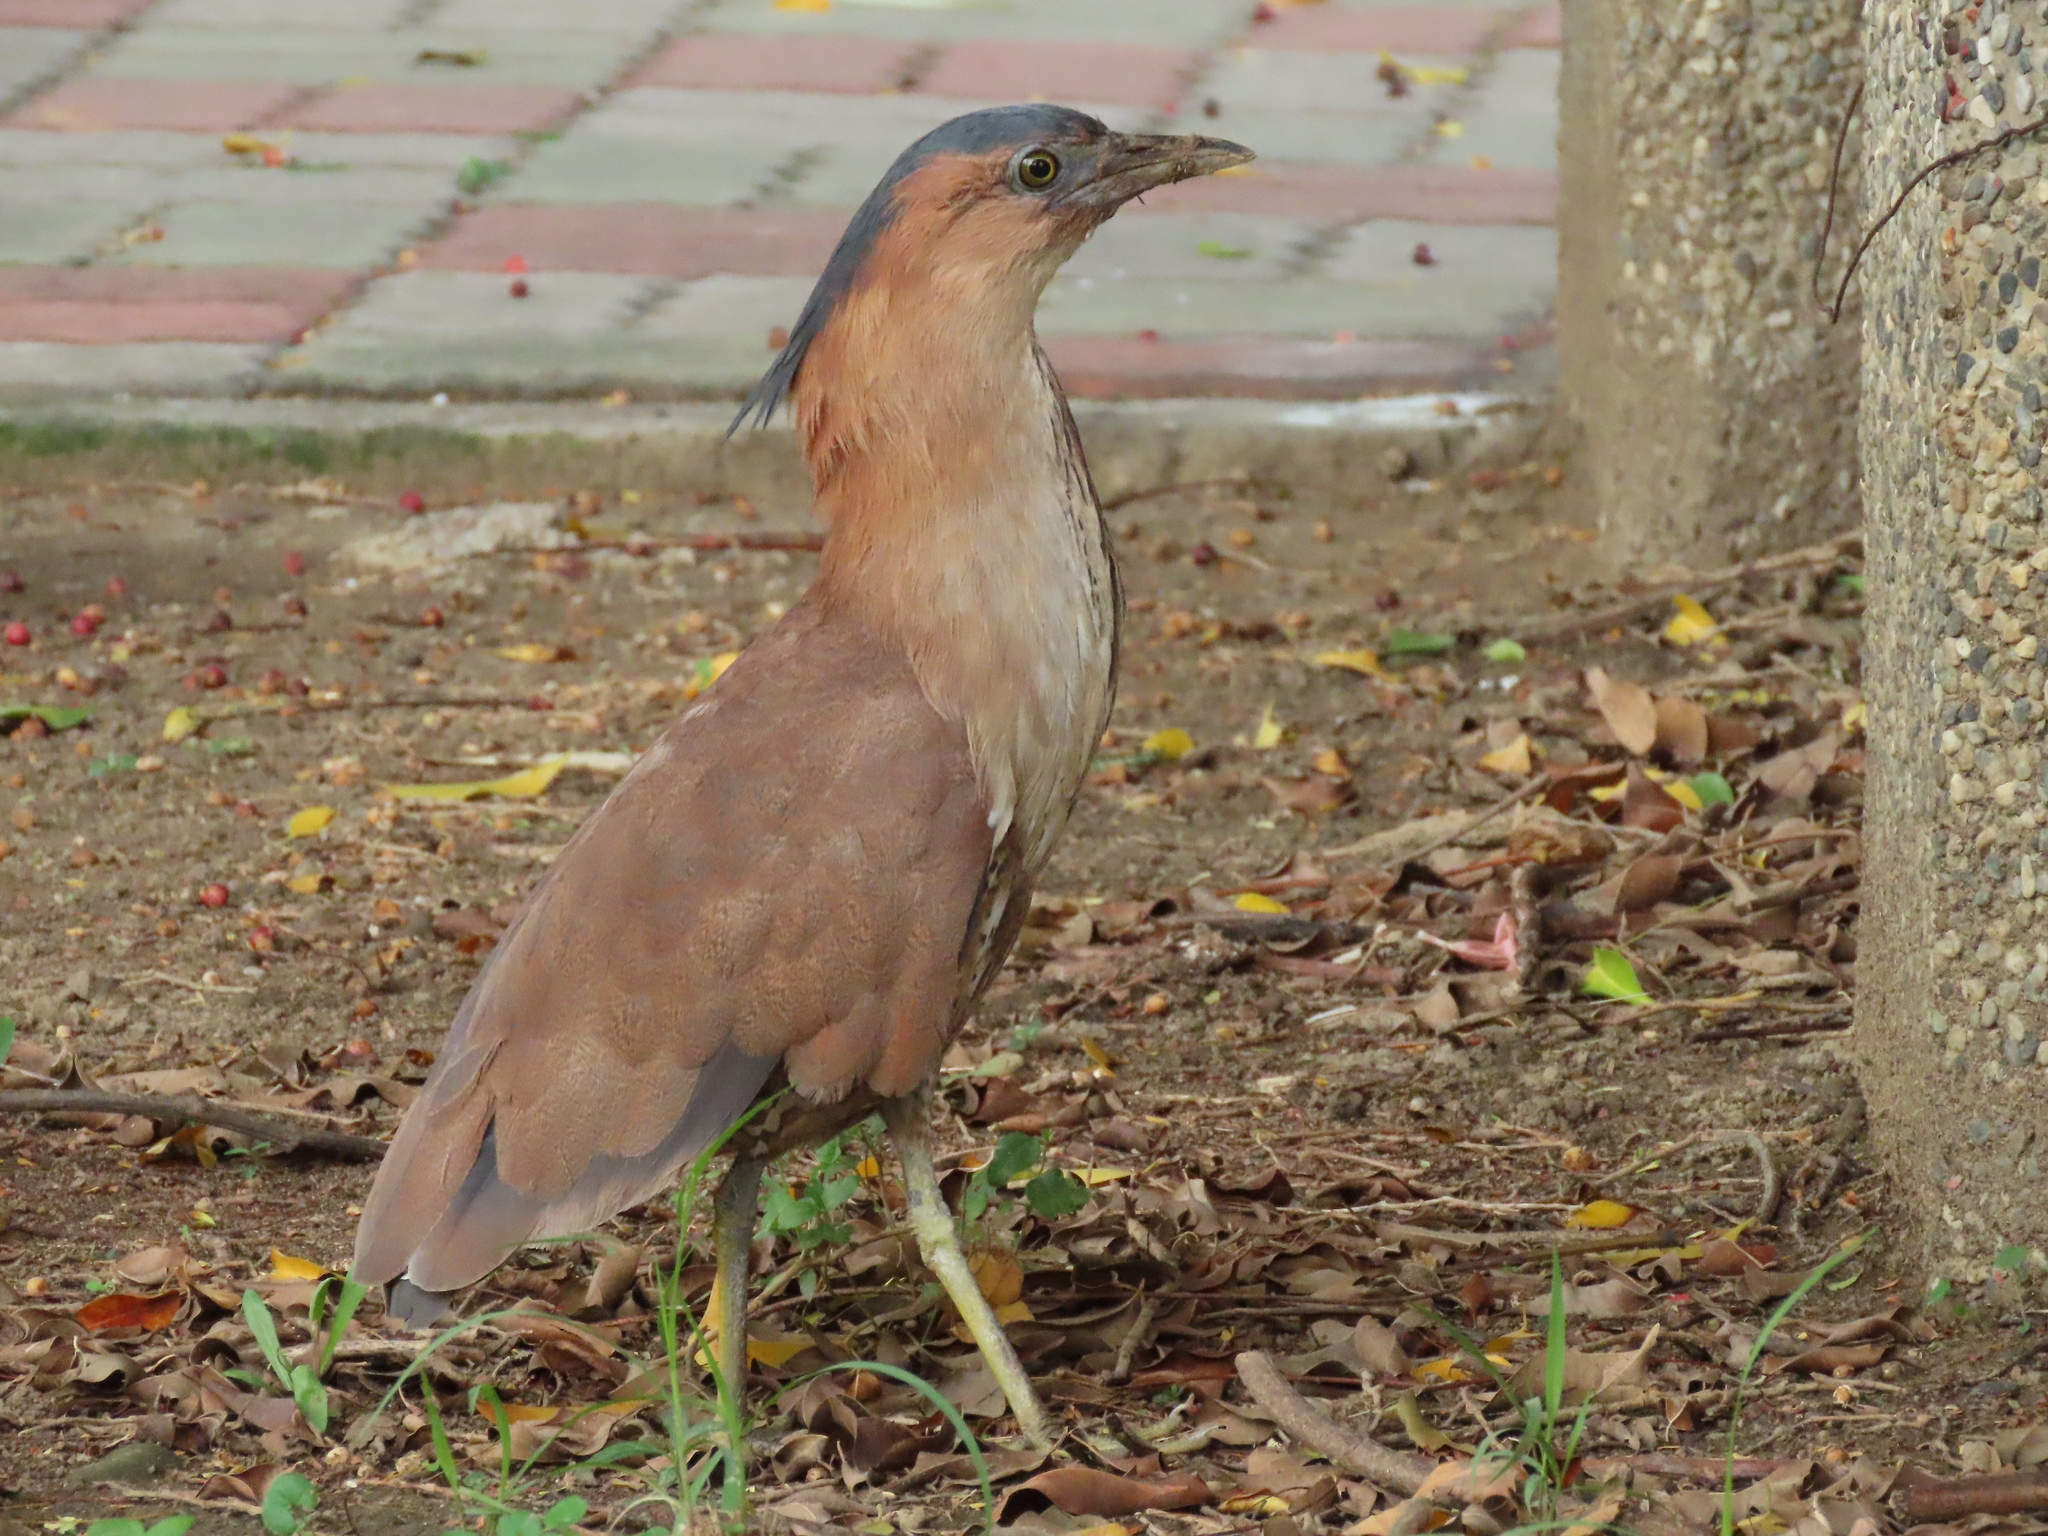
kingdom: Animalia
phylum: Chordata
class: Aves
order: Pelecaniformes
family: Ardeidae
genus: Gorsachius
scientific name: Gorsachius melanolophus
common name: Malayan night heron
